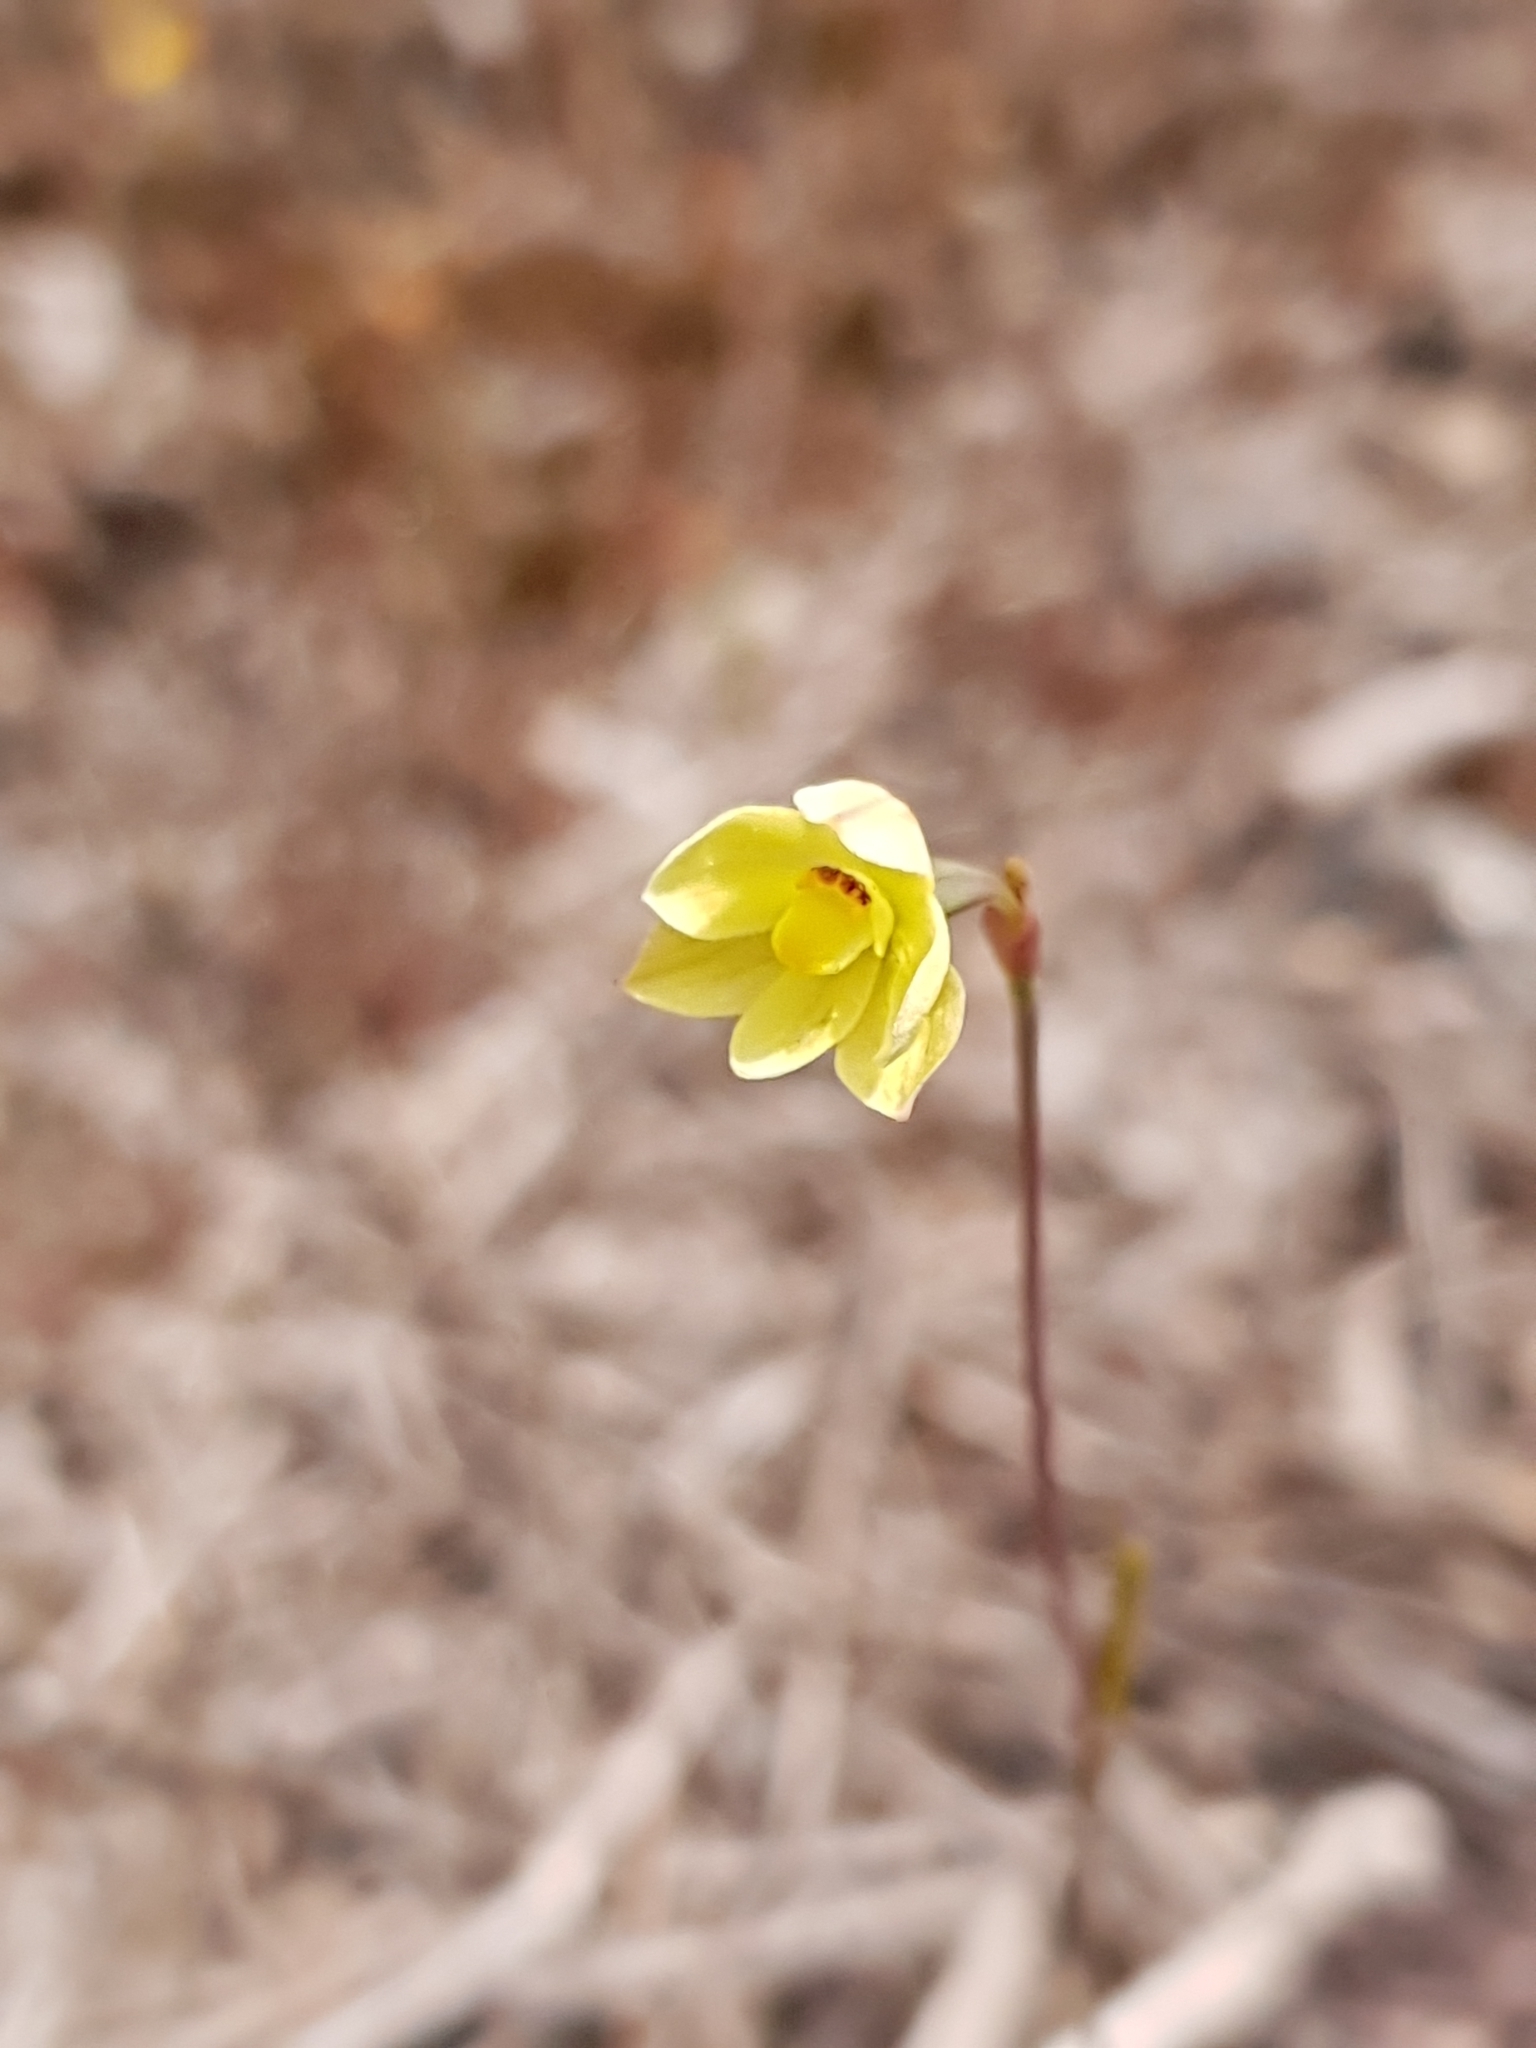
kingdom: Plantae
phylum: Tracheophyta
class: Liliopsida
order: Asparagales
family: Orchidaceae
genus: Thelymitra
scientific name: Thelymitra flexuosa
